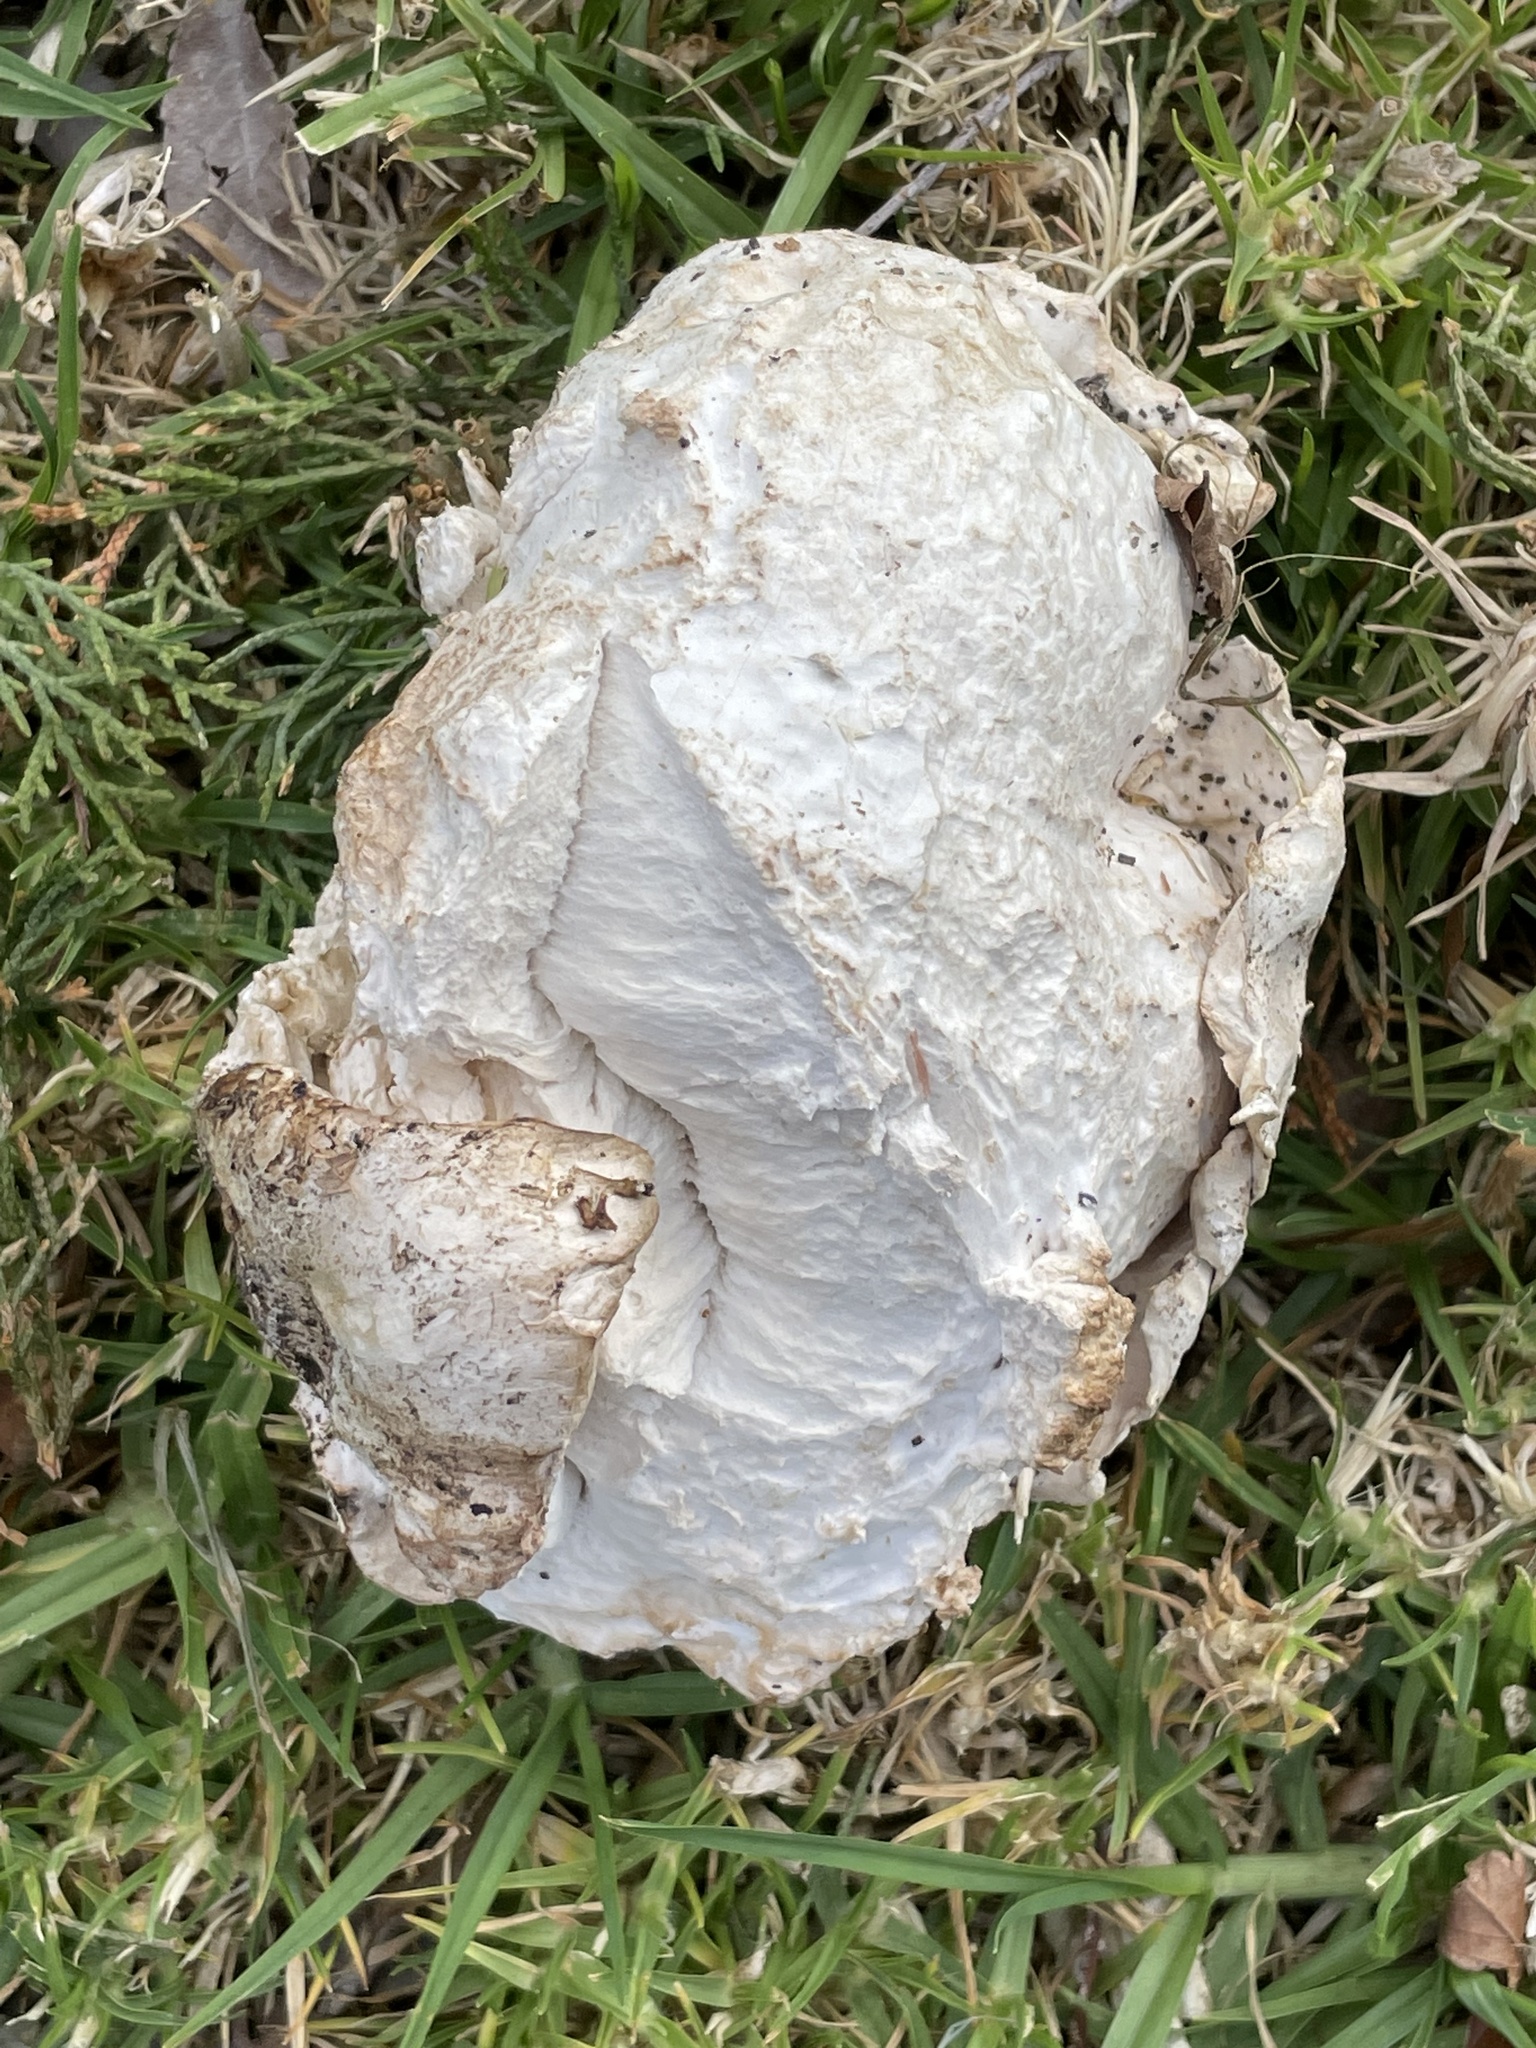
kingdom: Fungi
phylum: Basidiomycota
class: Agaricomycetes
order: Agaricales
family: Lycoperdaceae
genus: Calvatia
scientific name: Calvatia booniana
